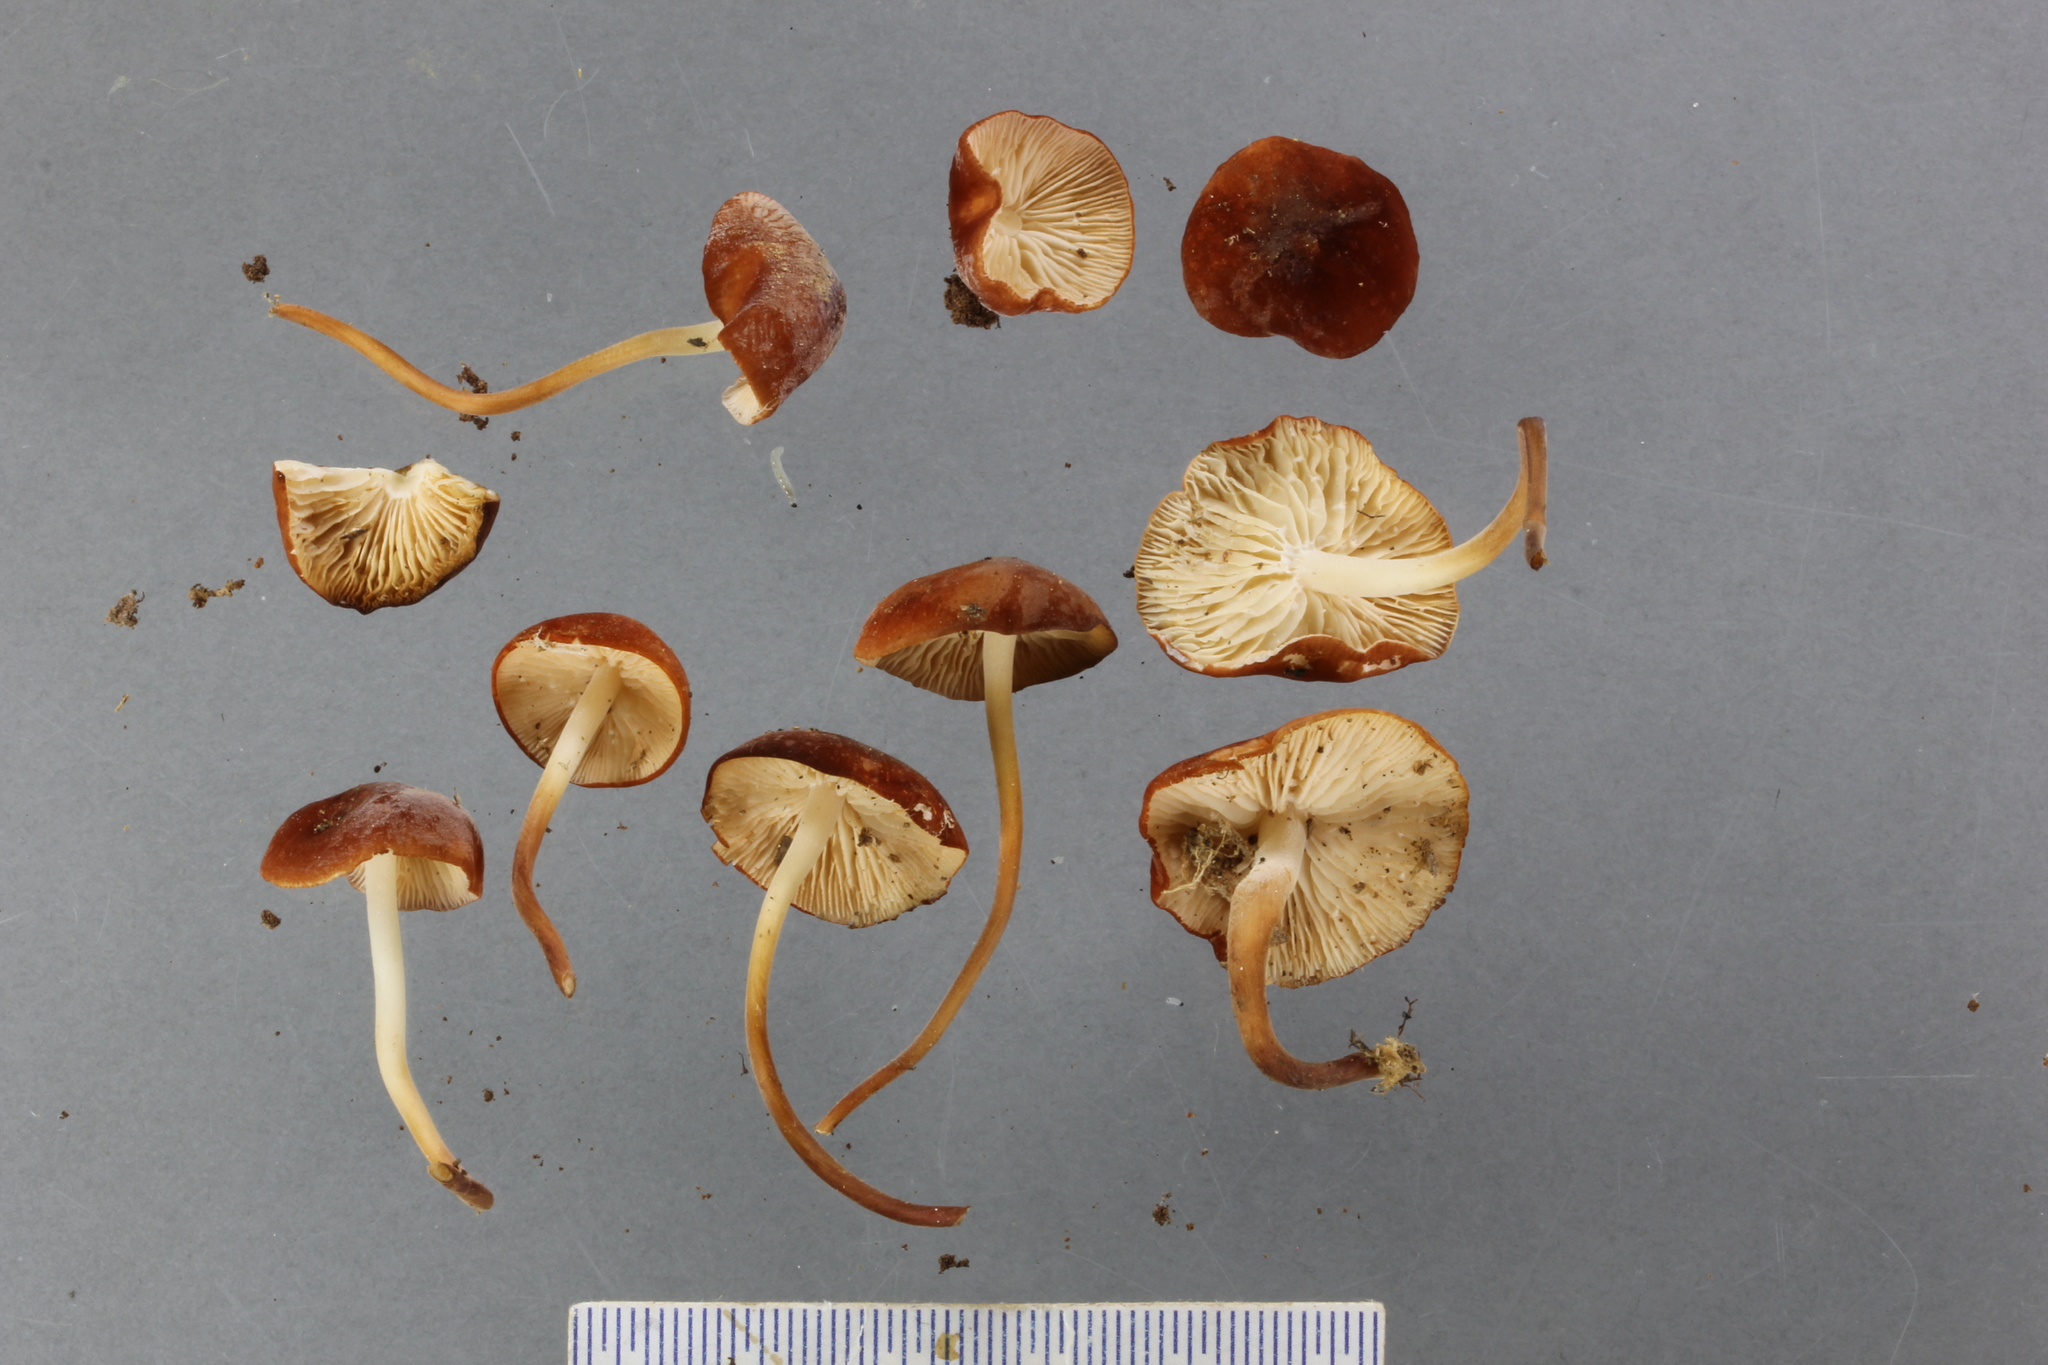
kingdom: Fungi
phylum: Basidiomycota
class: Agaricomycetes
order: Agaricales
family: Marasmiaceae
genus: Marasmius
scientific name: Marasmius elegans
